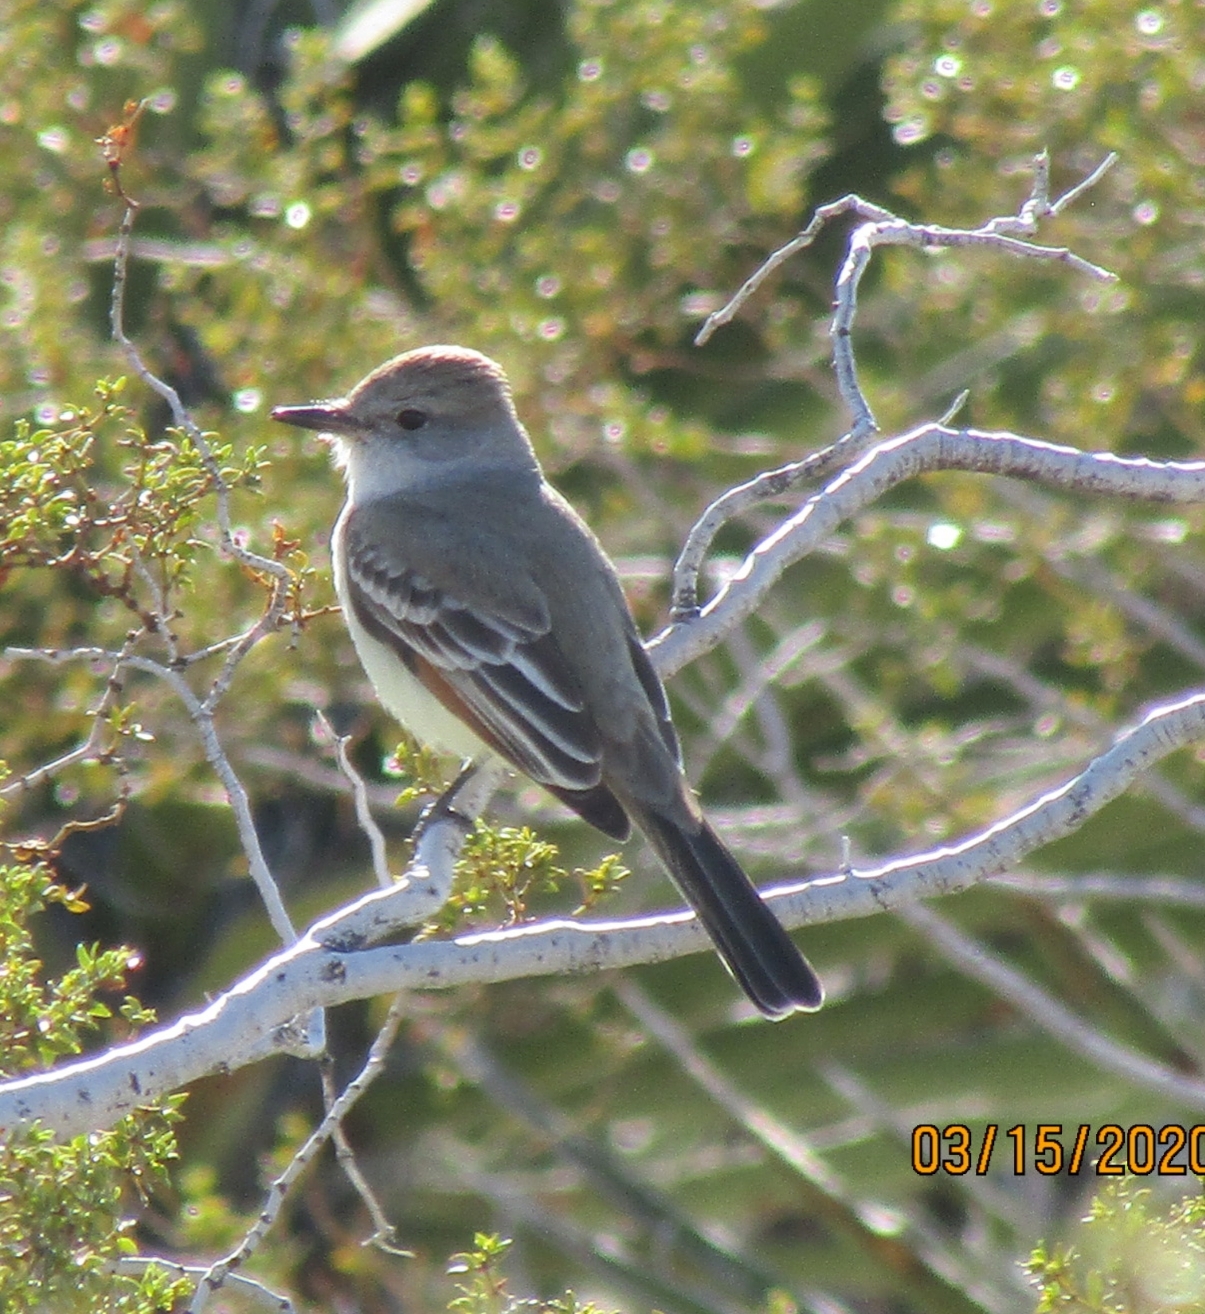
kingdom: Animalia
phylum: Chordata
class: Aves
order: Passeriformes
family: Tyrannidae
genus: Myiarchus
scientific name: Myiarchus cinerascens
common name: Ash-throated flycatcher
